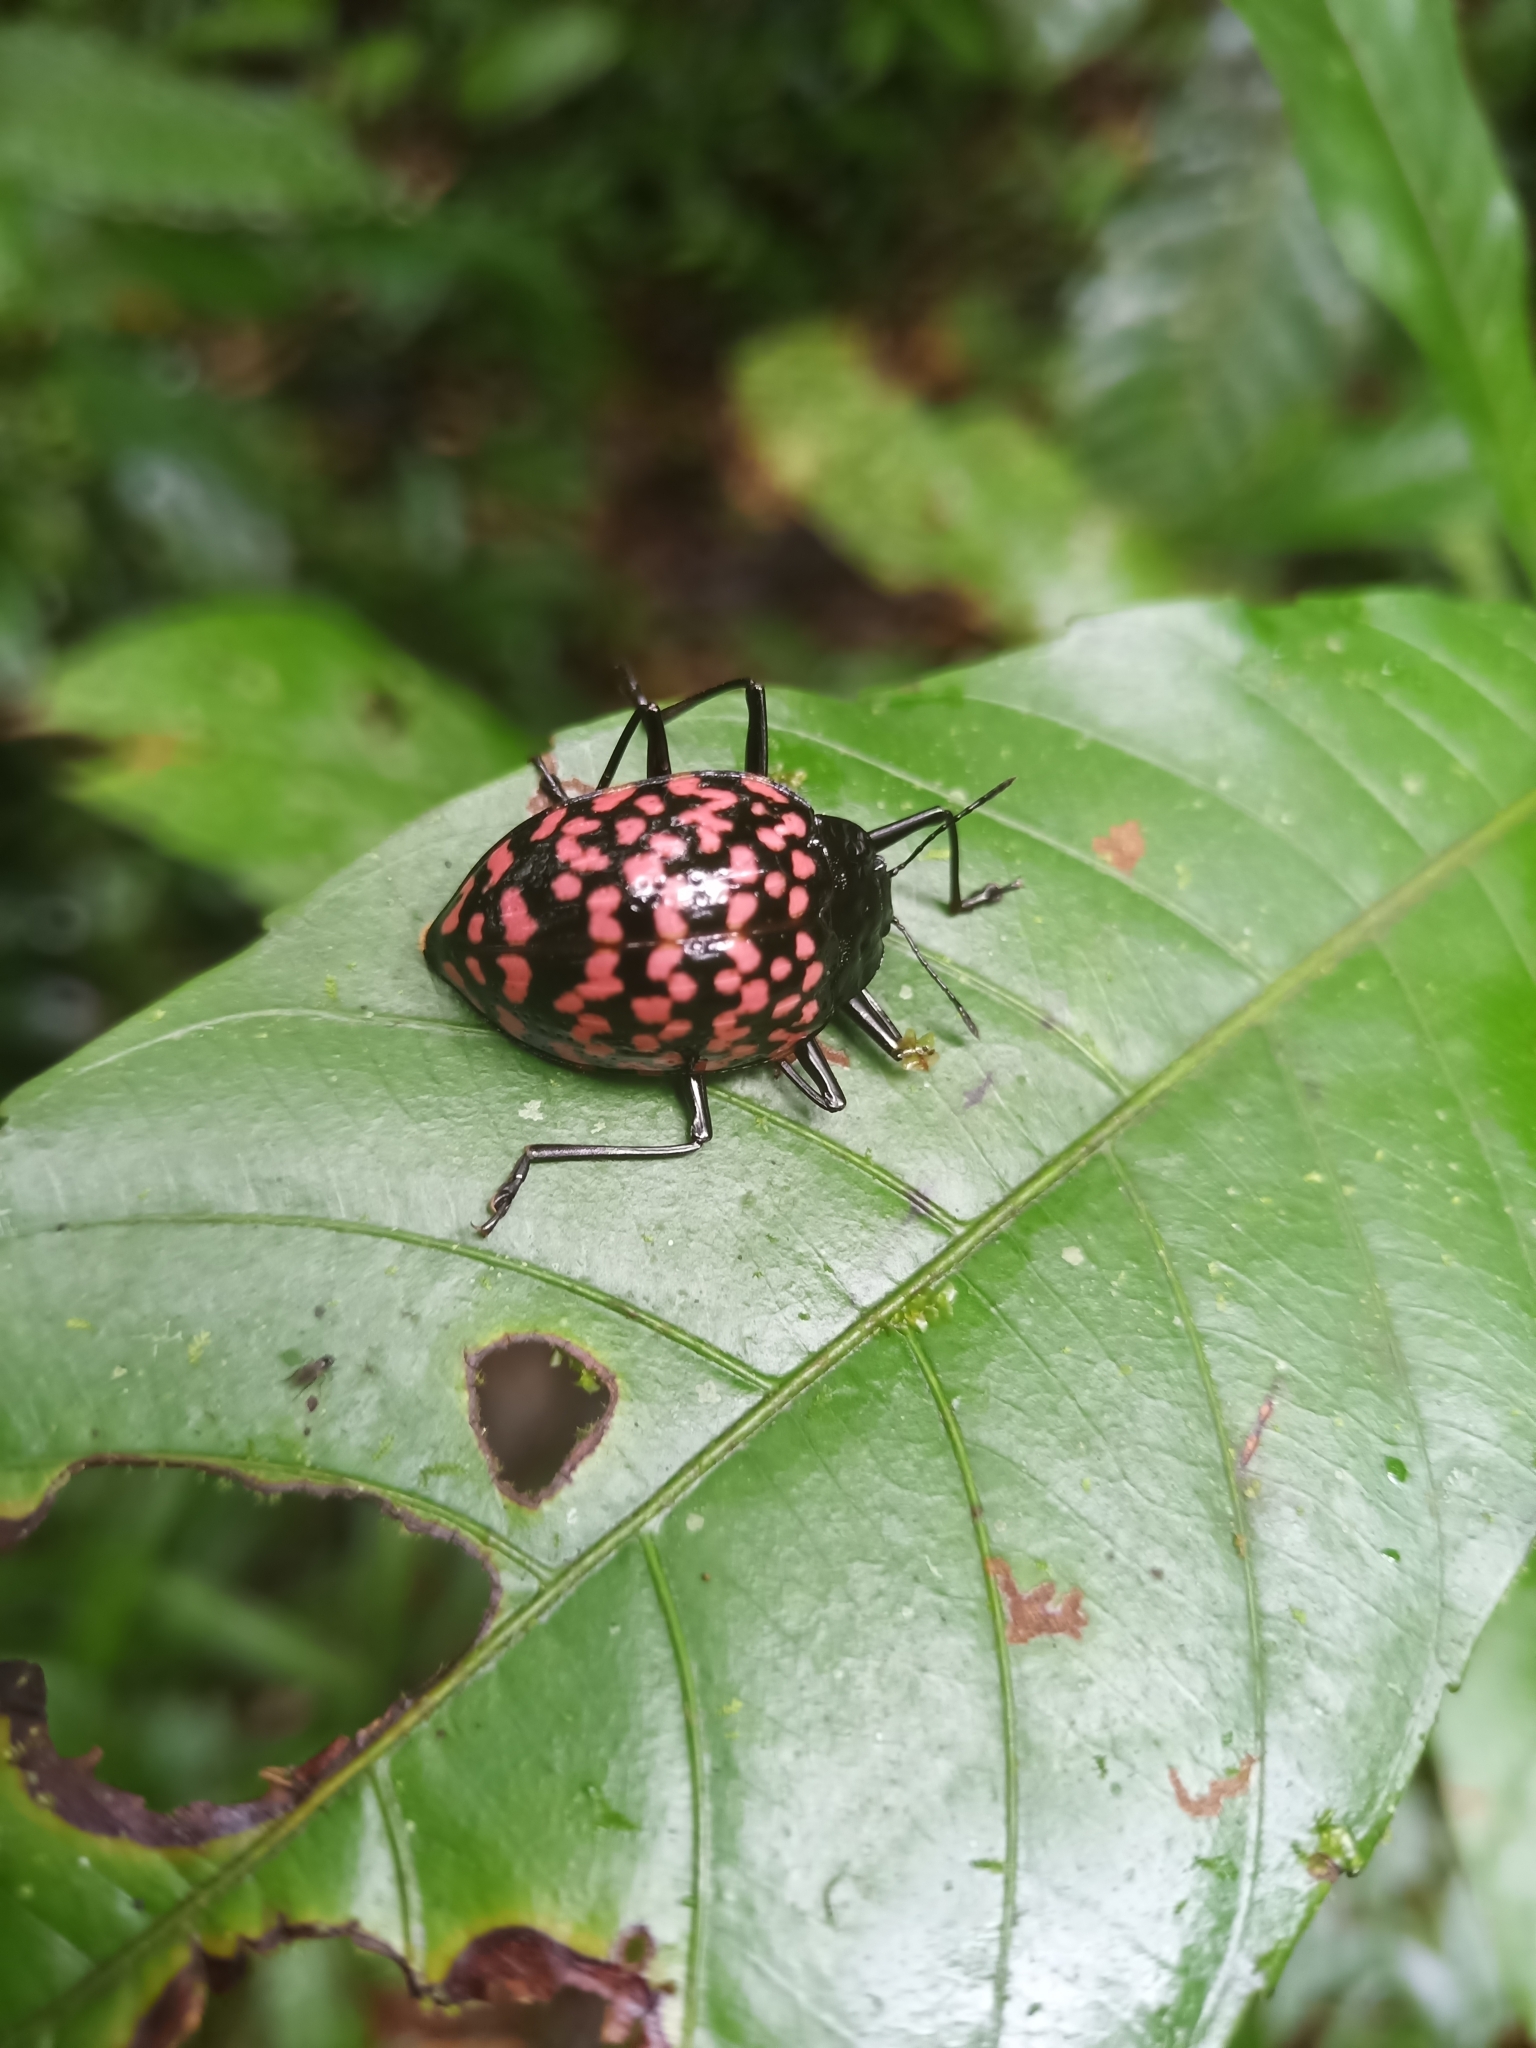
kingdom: Animalia
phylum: Arthropoda
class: Insecta
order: Coleoptera
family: Erotylidae
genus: Erotylus
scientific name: Erotylus giganteus
